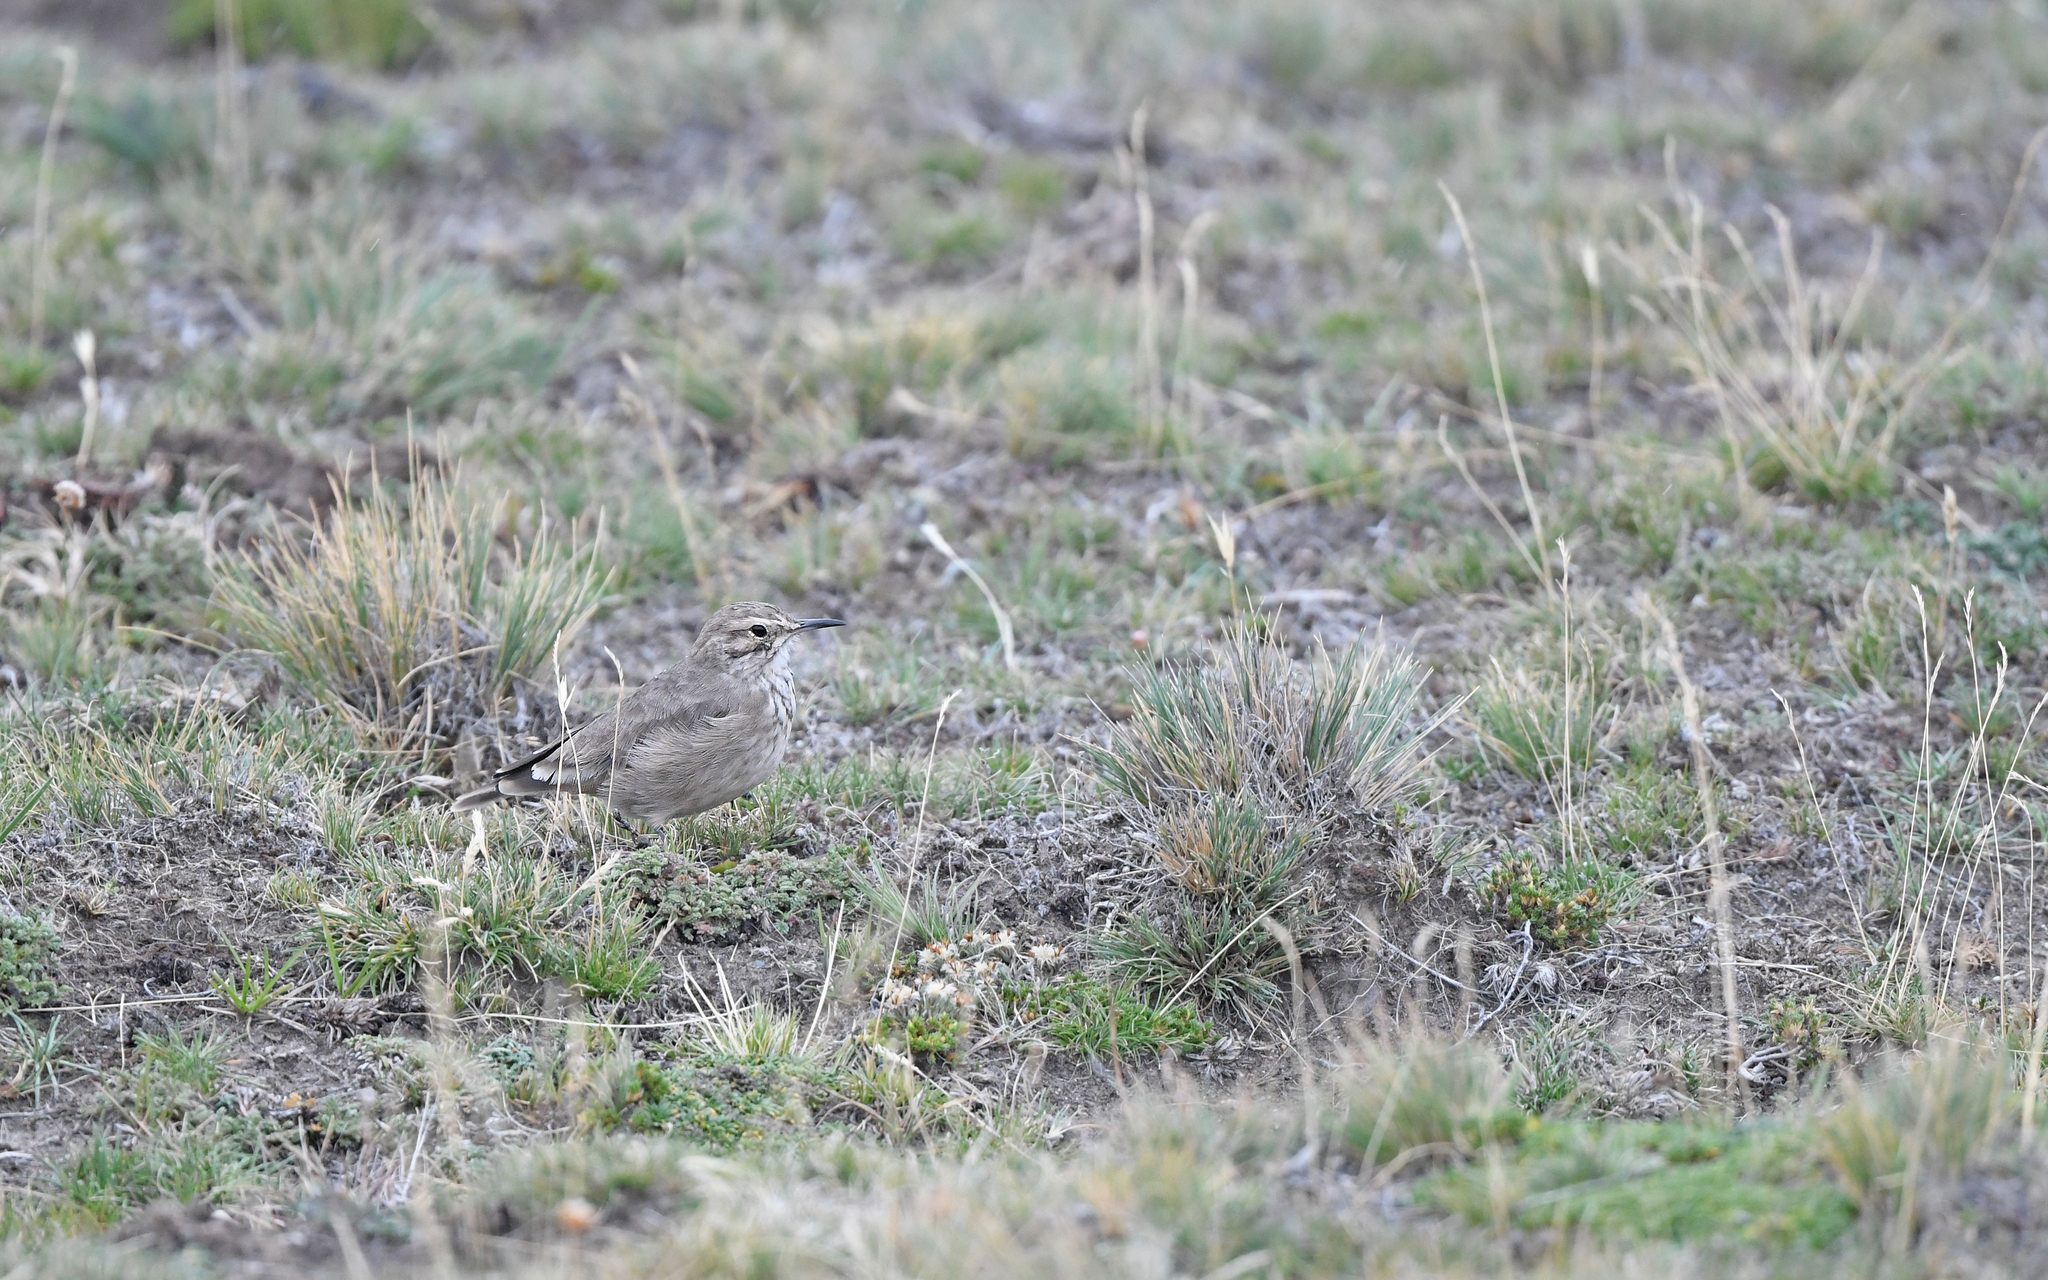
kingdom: Animalia
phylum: Chordata
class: Aves
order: Passeriformes
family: Furnariidae
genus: Geositta
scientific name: Geositta cunicularia
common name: Common miner
